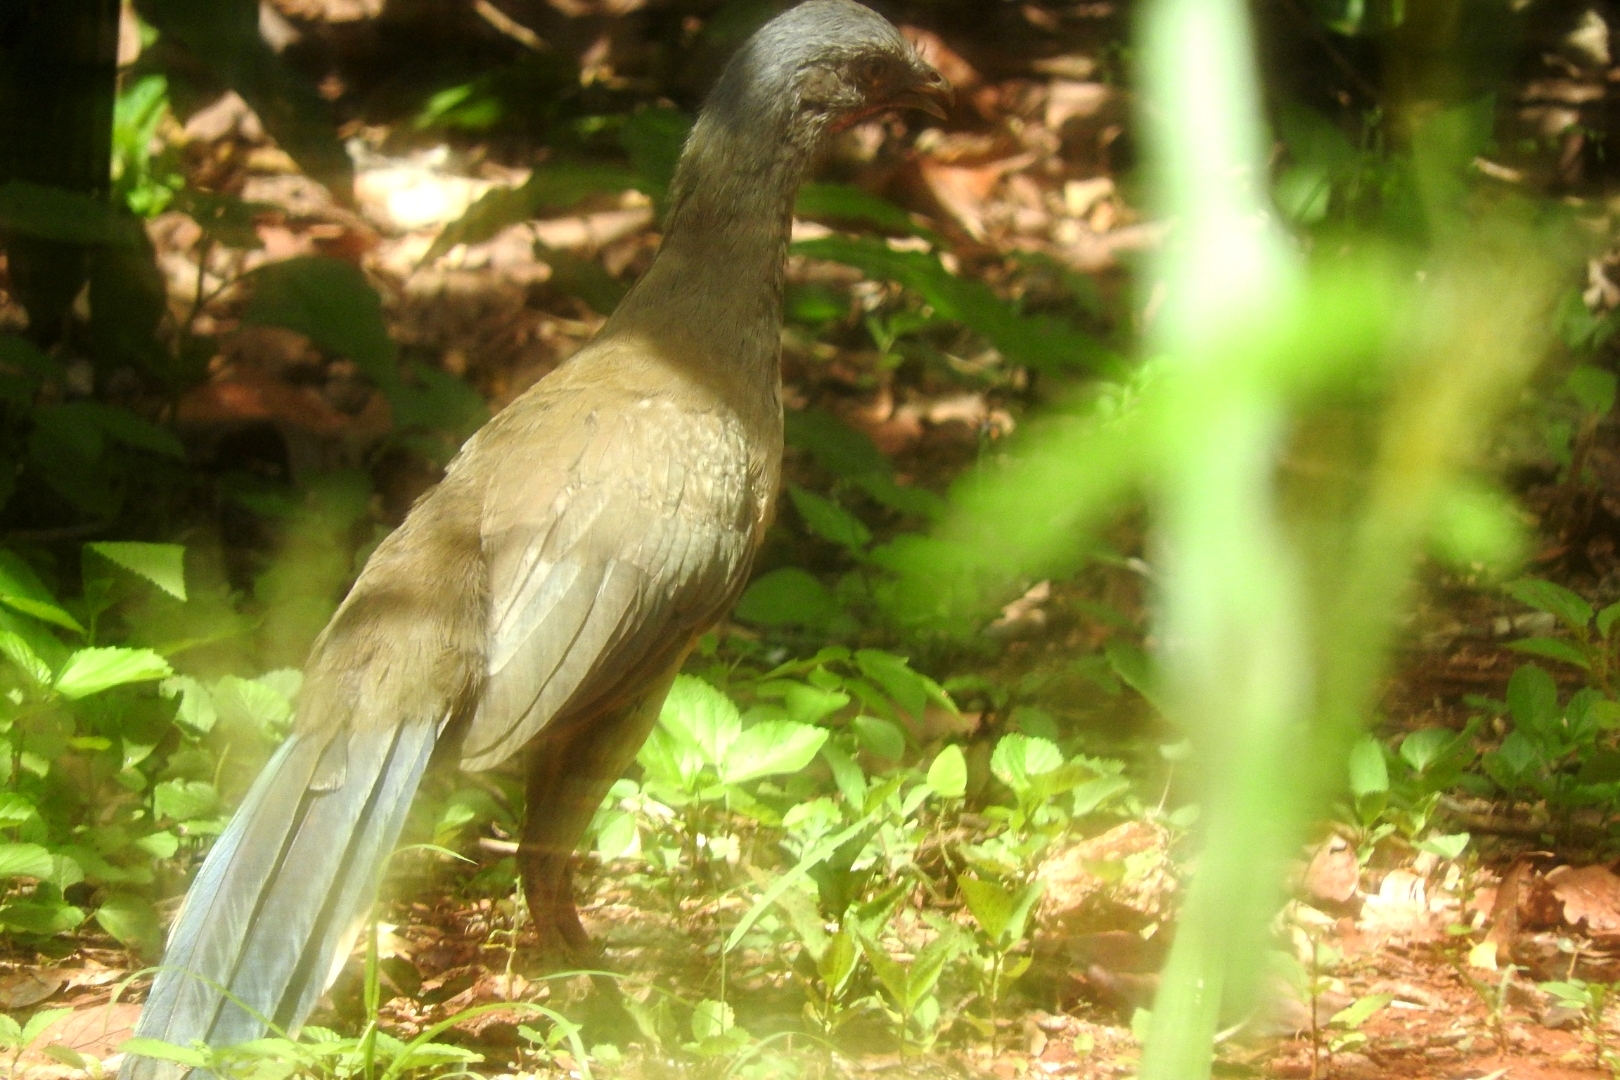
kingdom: Animalia
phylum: Chordata
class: Aves
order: Galliformes
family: Cracidae
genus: Ortalis
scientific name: Ortalis vetula
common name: Plain chachalaca
